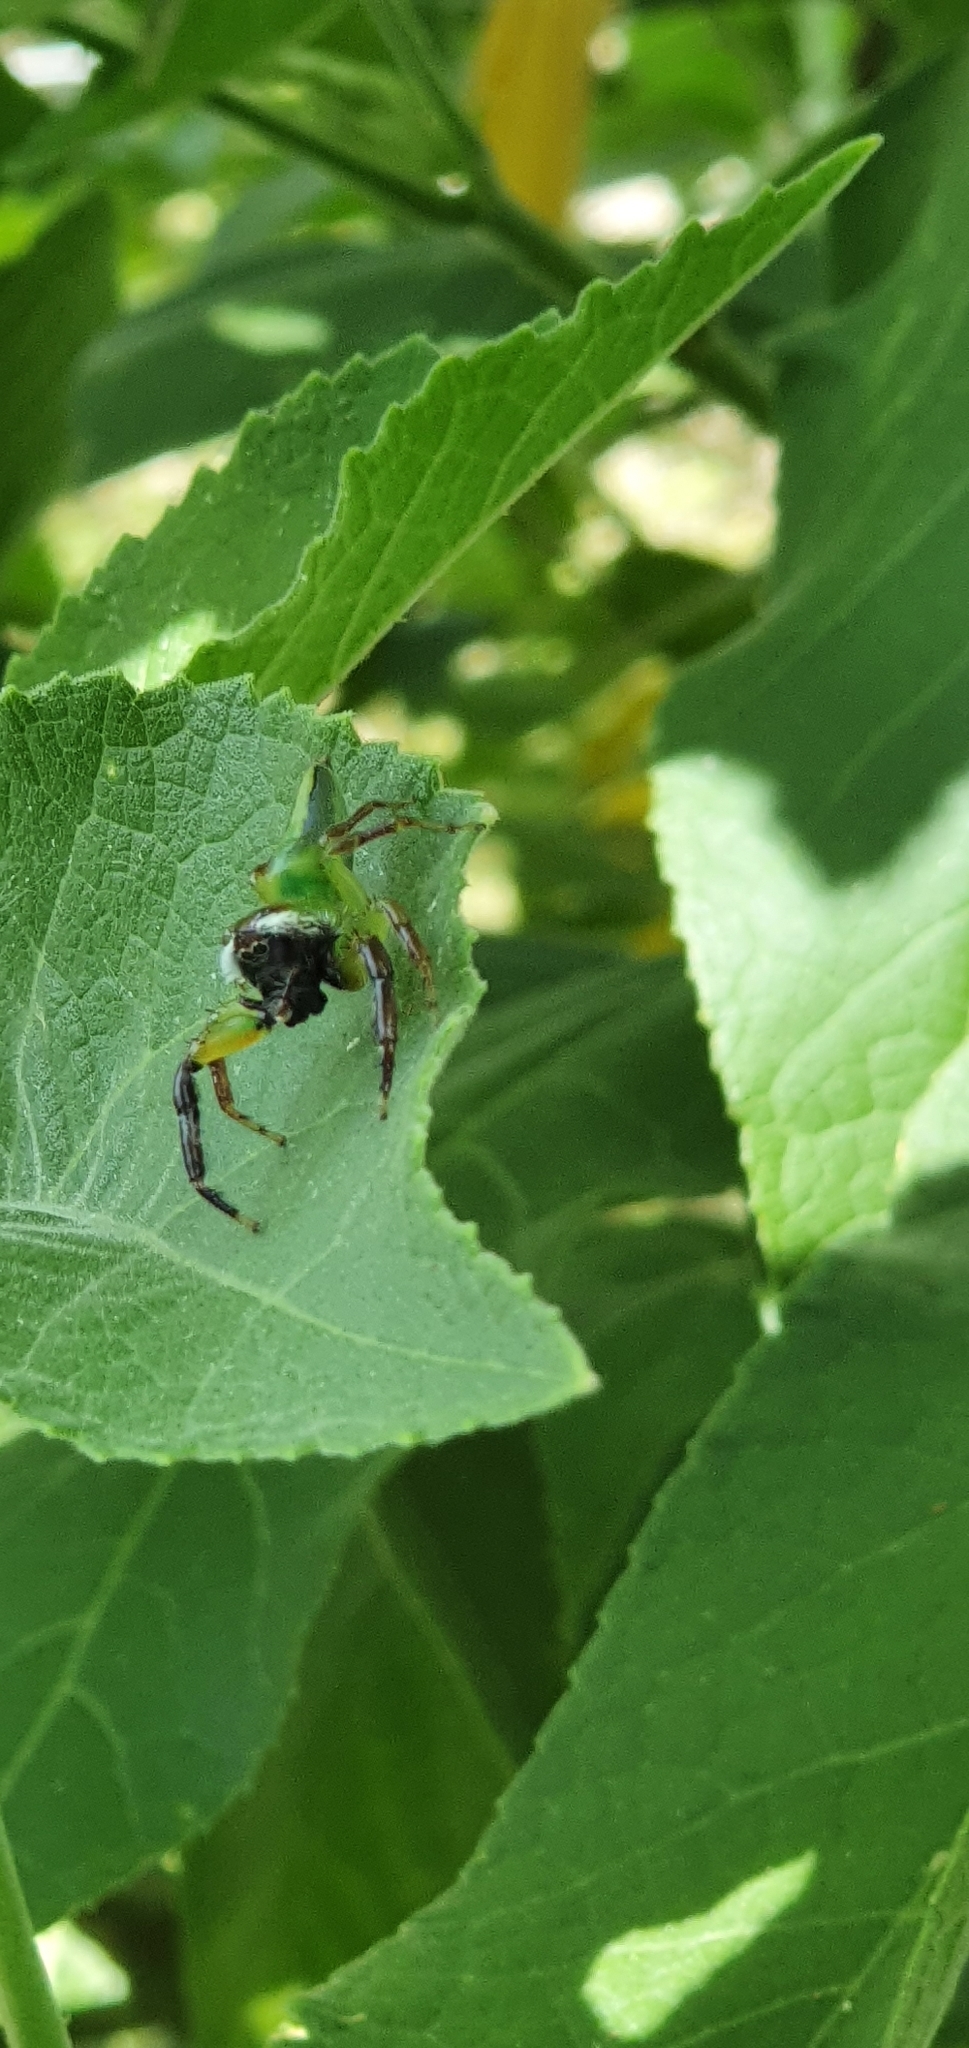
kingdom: Animalia
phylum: Arthropoda
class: Arachnida
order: Araneae
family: Salticidae
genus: Mopsus
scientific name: Mopsus mormon
